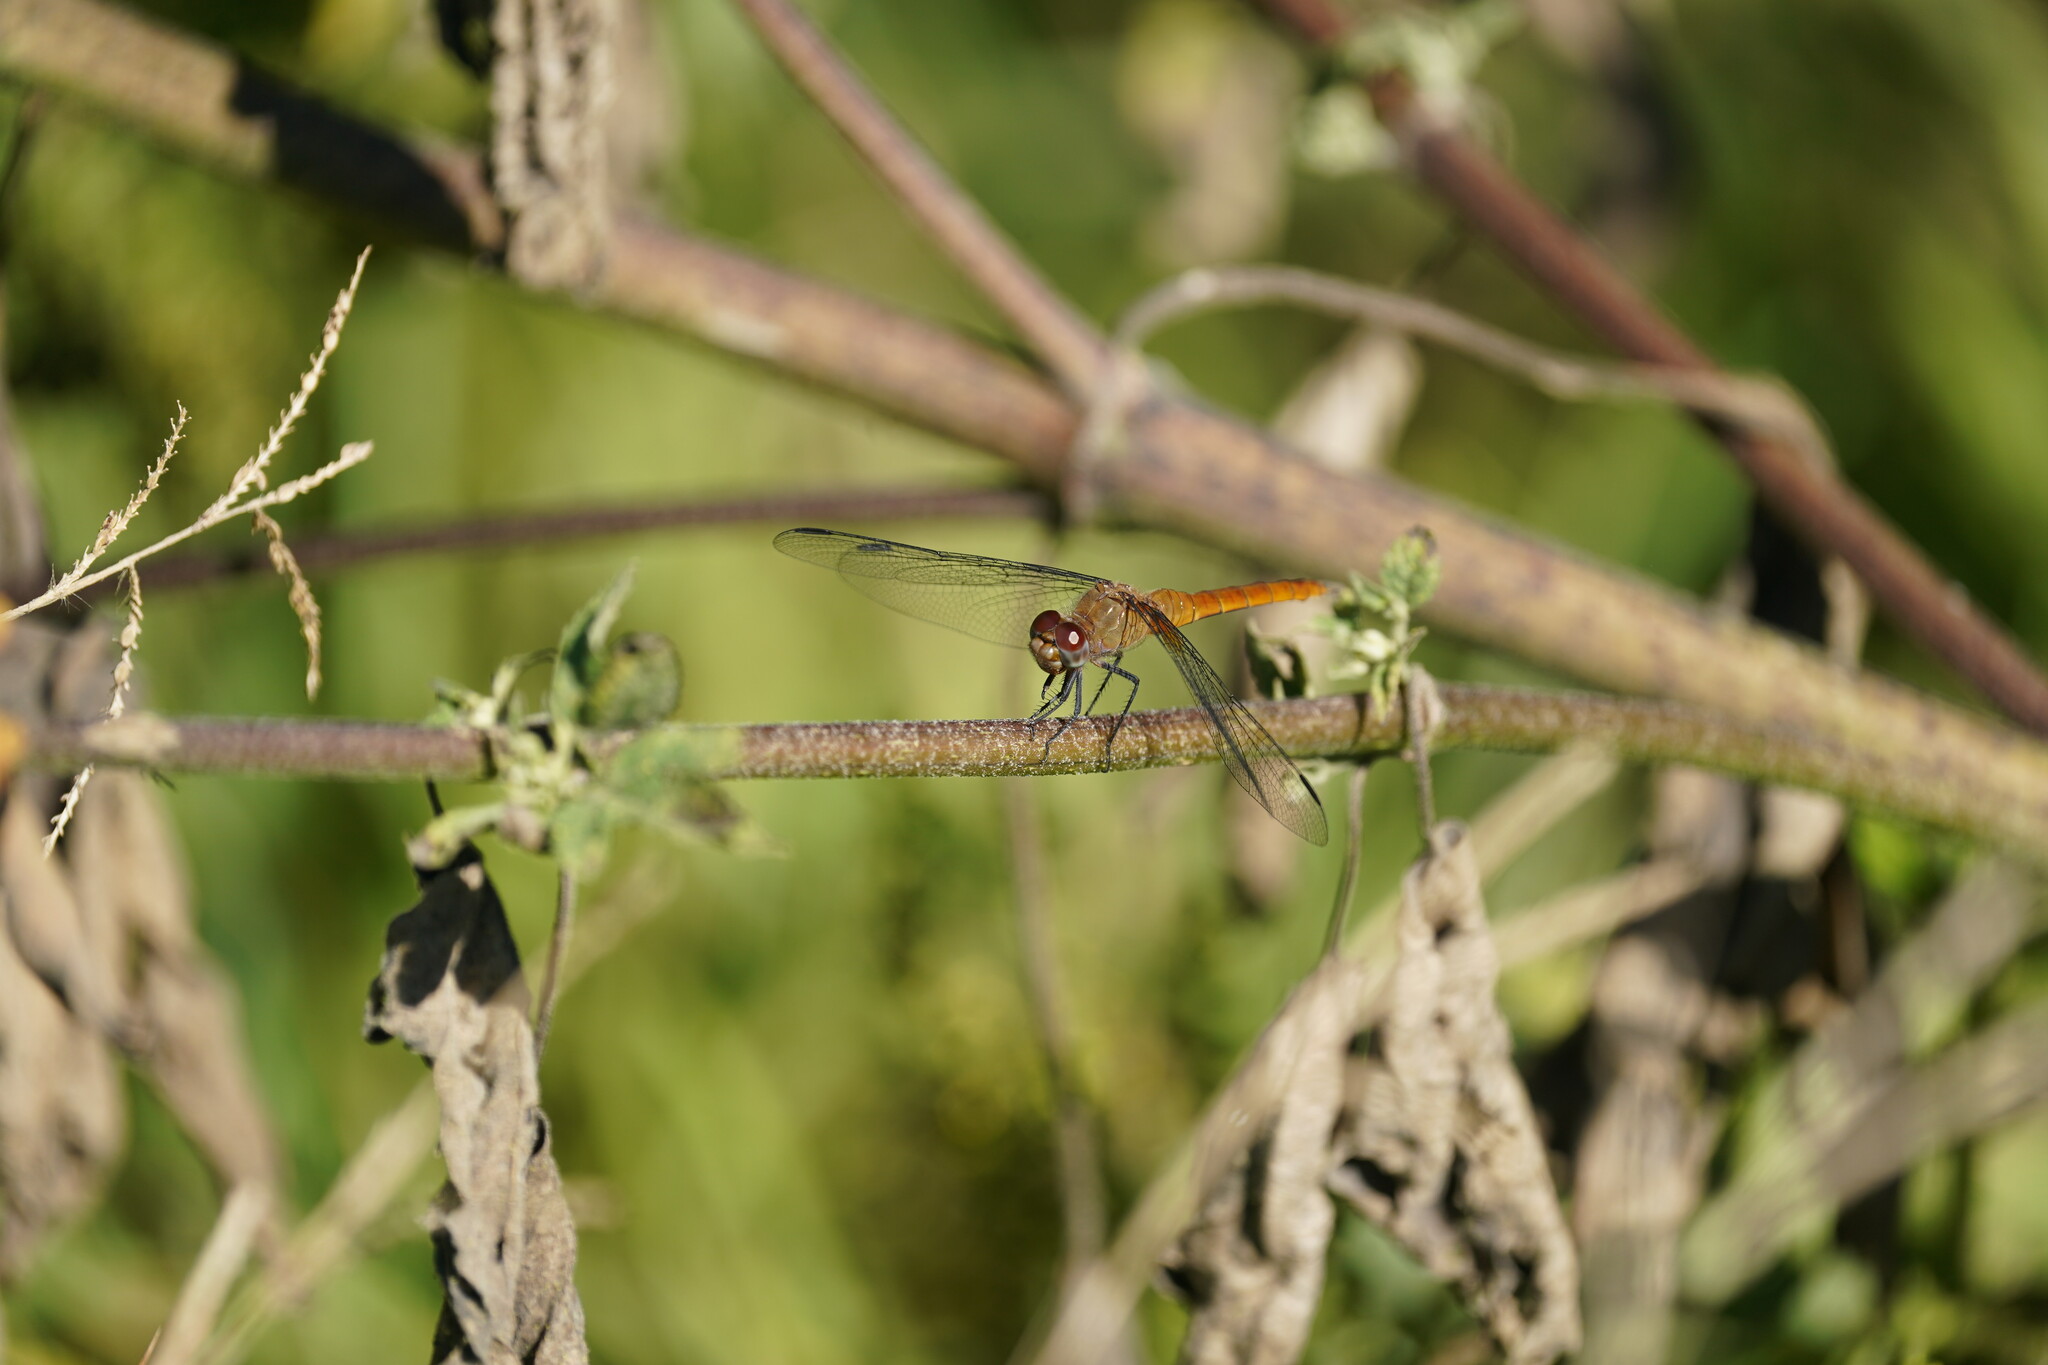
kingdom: Animalia
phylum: Arthropoda
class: Insecta
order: Odonata
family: Libellulidae
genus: Brachymesia
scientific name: Brachymesia furcata
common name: Red-taled pennant
